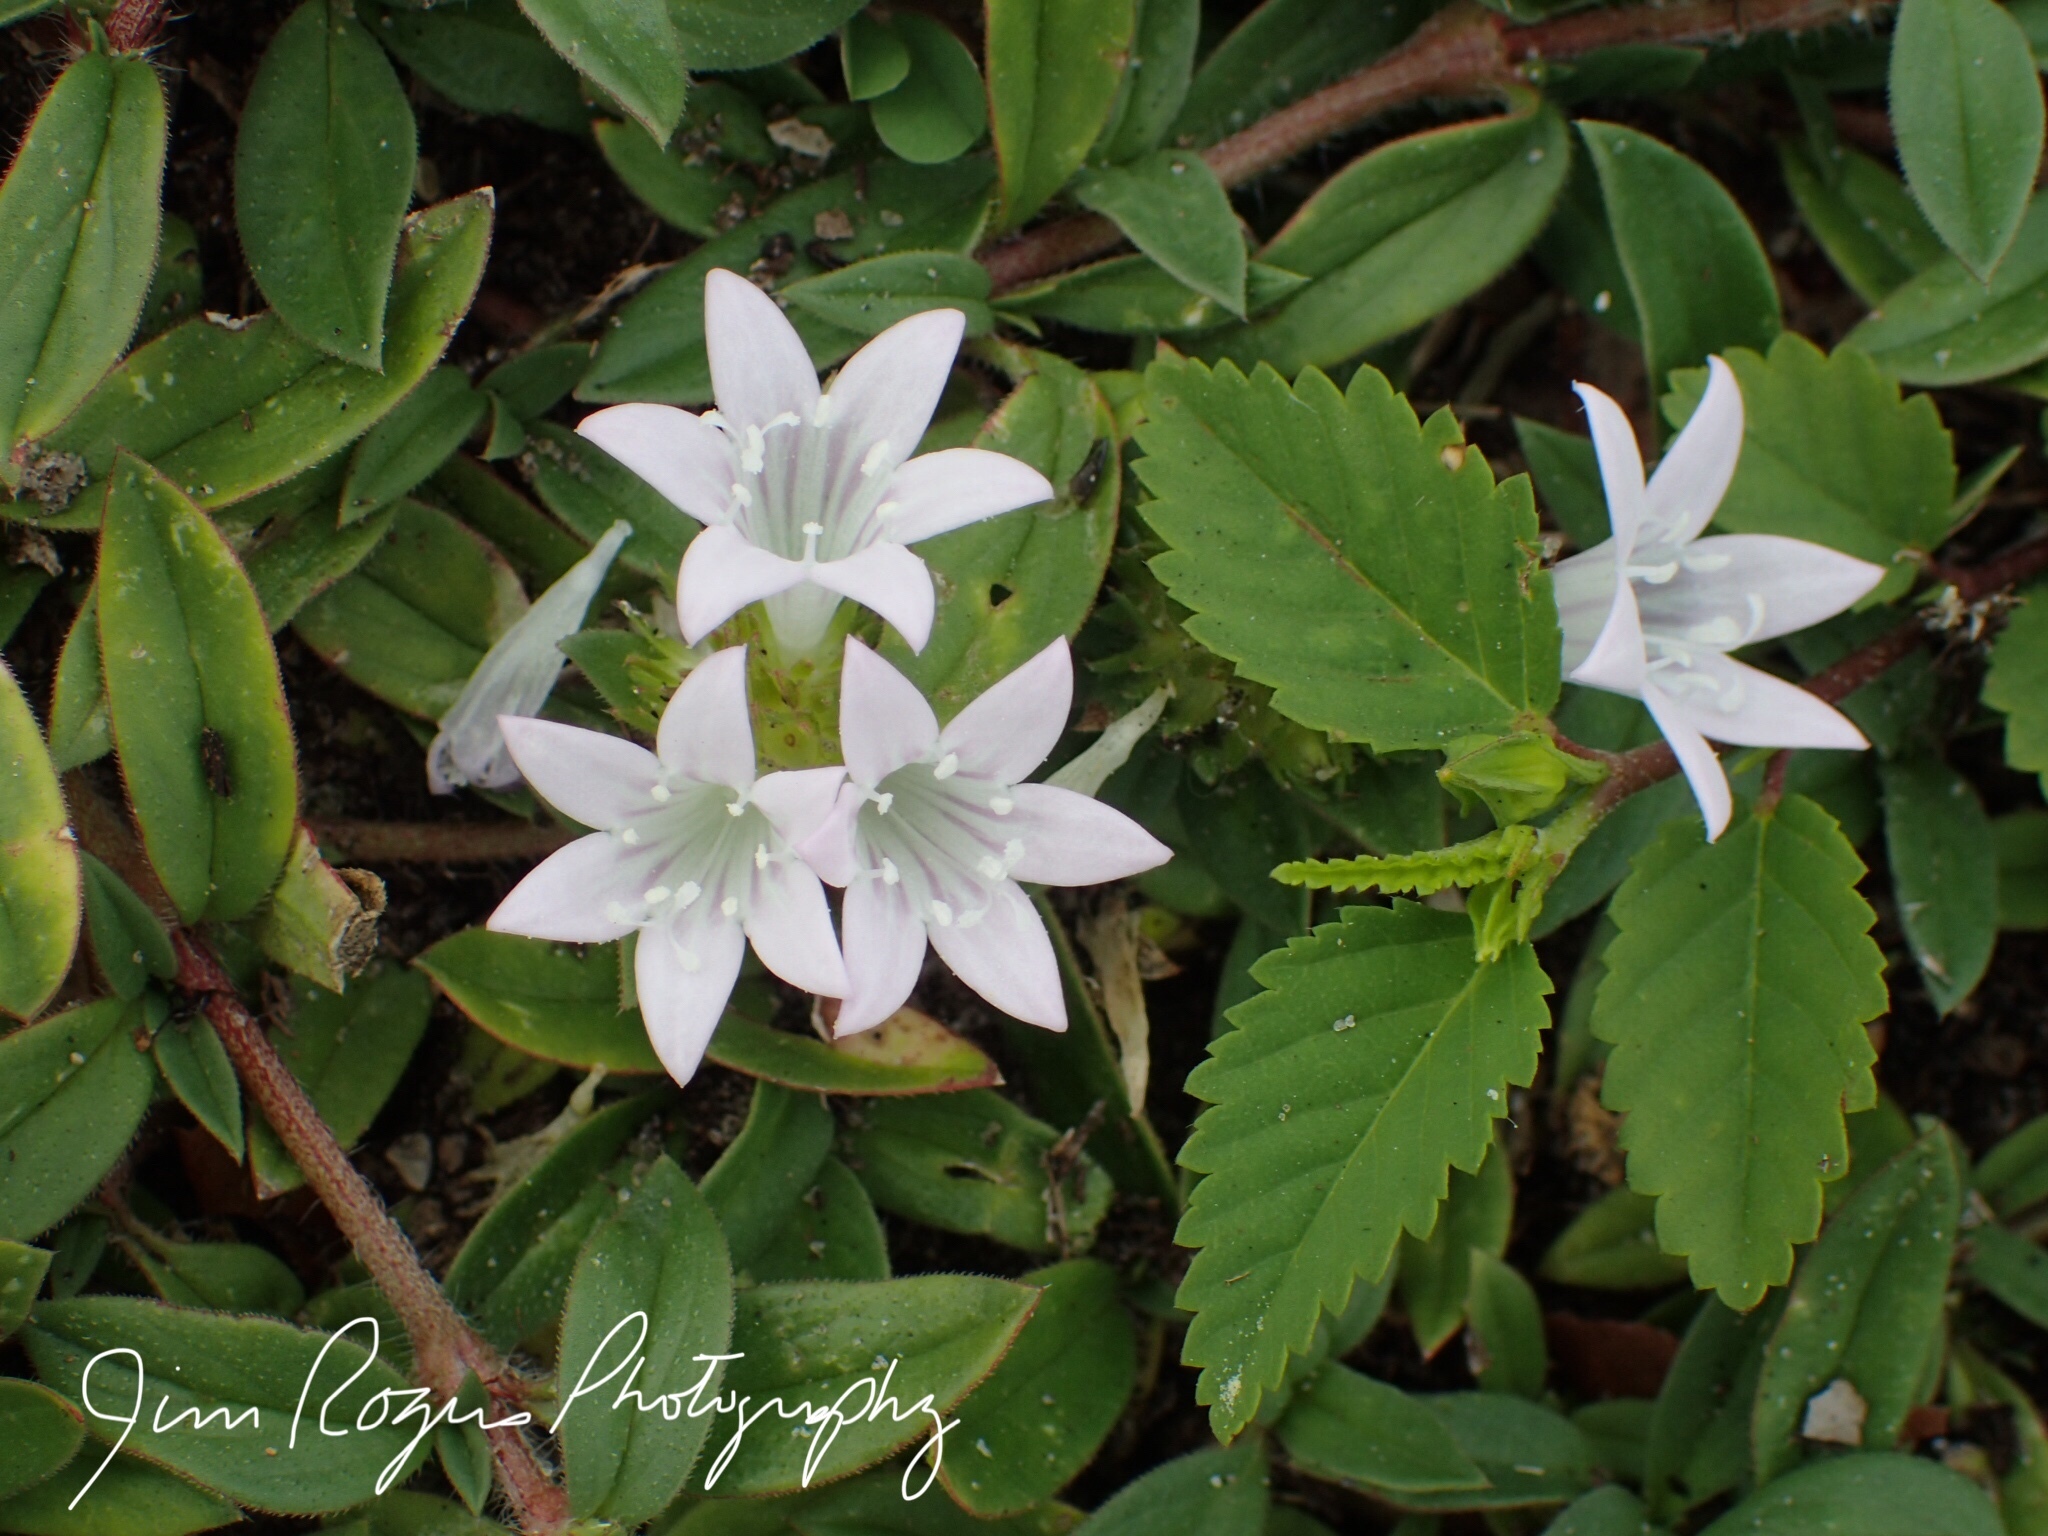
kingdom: Plantae
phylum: Tracheophyta
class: Magnoliopsida
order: Gentianales
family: Rubiaceae
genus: Richardia
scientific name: Richardia grandiflora
